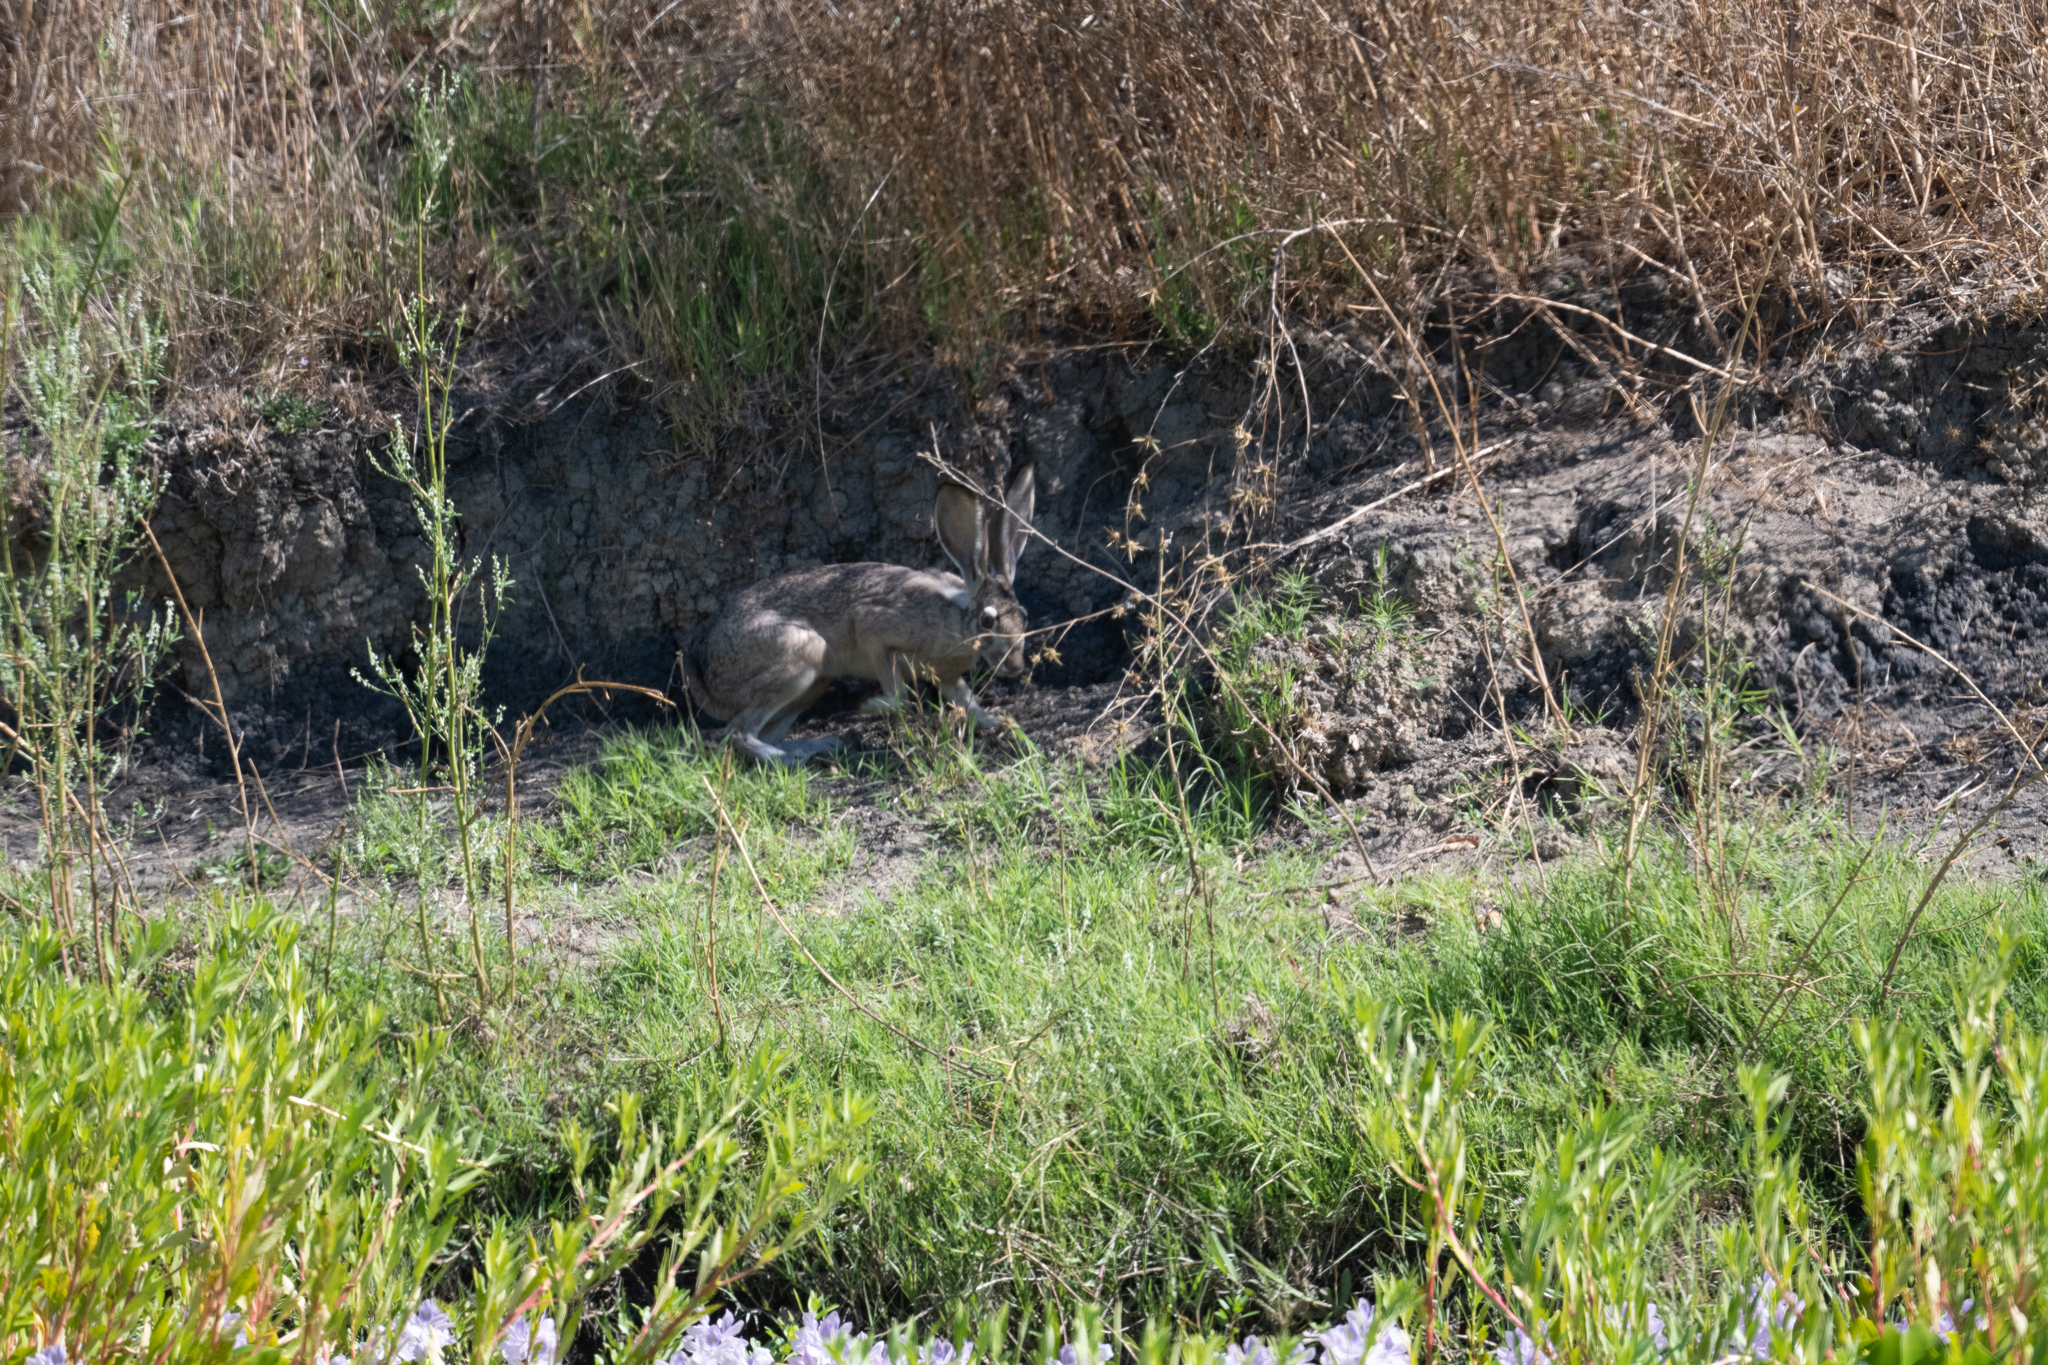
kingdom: Animalia
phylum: Chordata
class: Mammalia
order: Lagomorpha
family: Leporidae
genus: Lepus
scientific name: Lepus californicus
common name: Black-tailed jackrabbit
